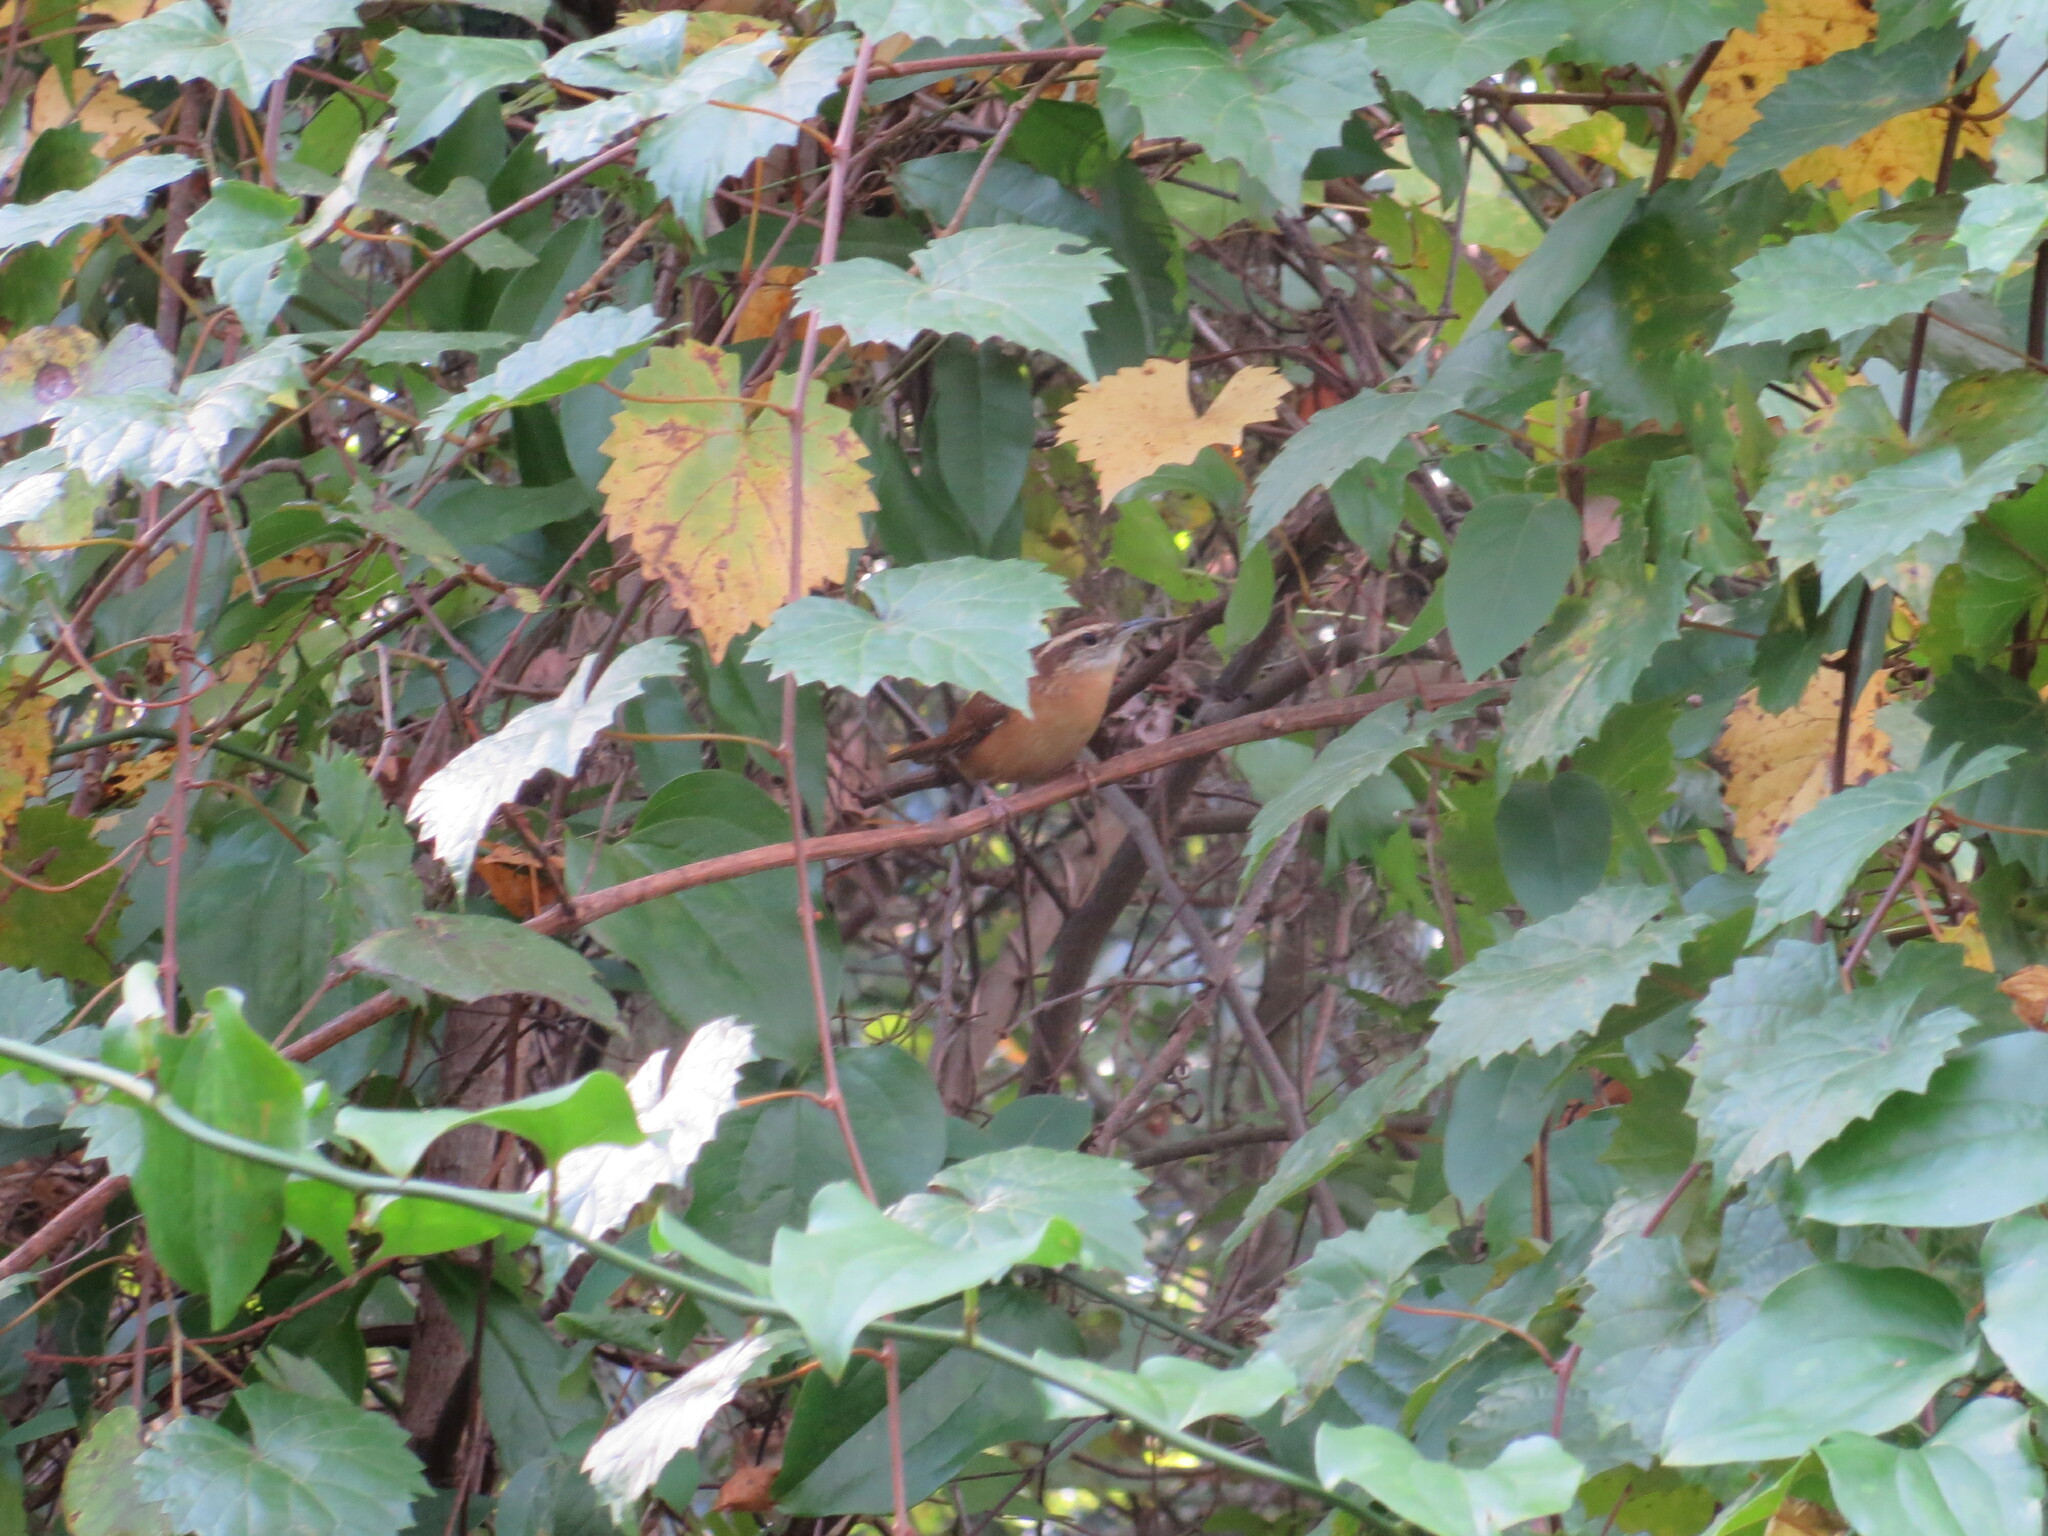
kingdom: Animalia
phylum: Chordata
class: Aves
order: Passeriformes
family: Troglodytidae
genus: Thryothorus
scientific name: Thryothorus ludovicianus
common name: Carolina wren
